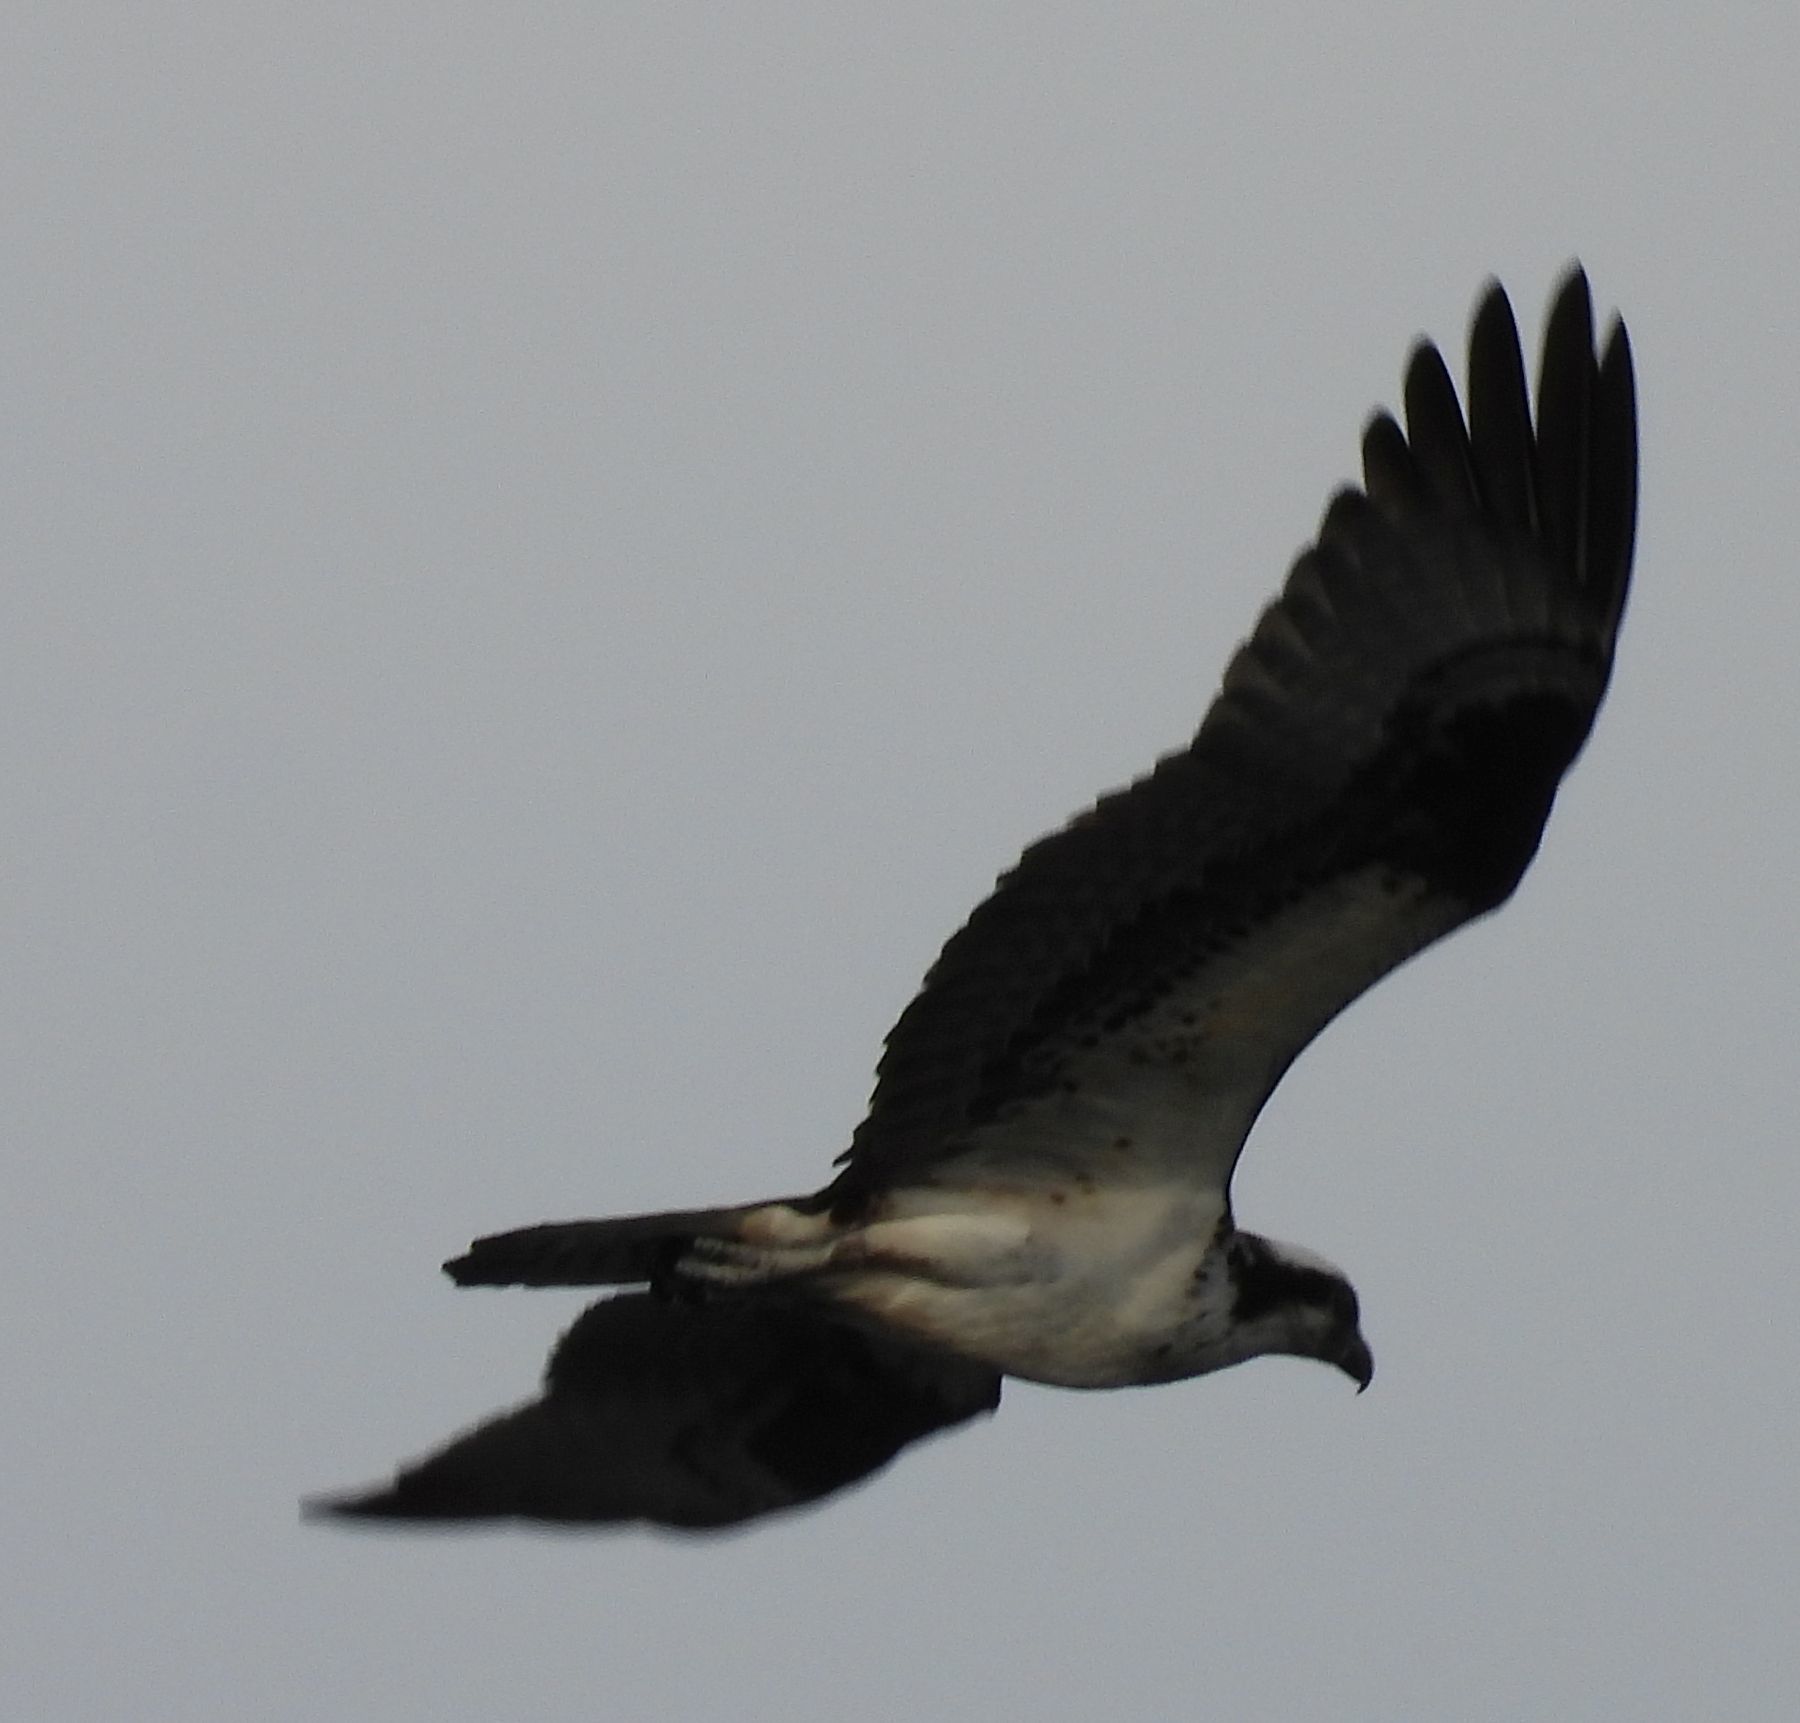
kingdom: Animalia
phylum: Chordata
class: Aves
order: Accipitriformes
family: Pandionidae
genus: Pandion
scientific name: Pandion haliaetus
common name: Osprey
